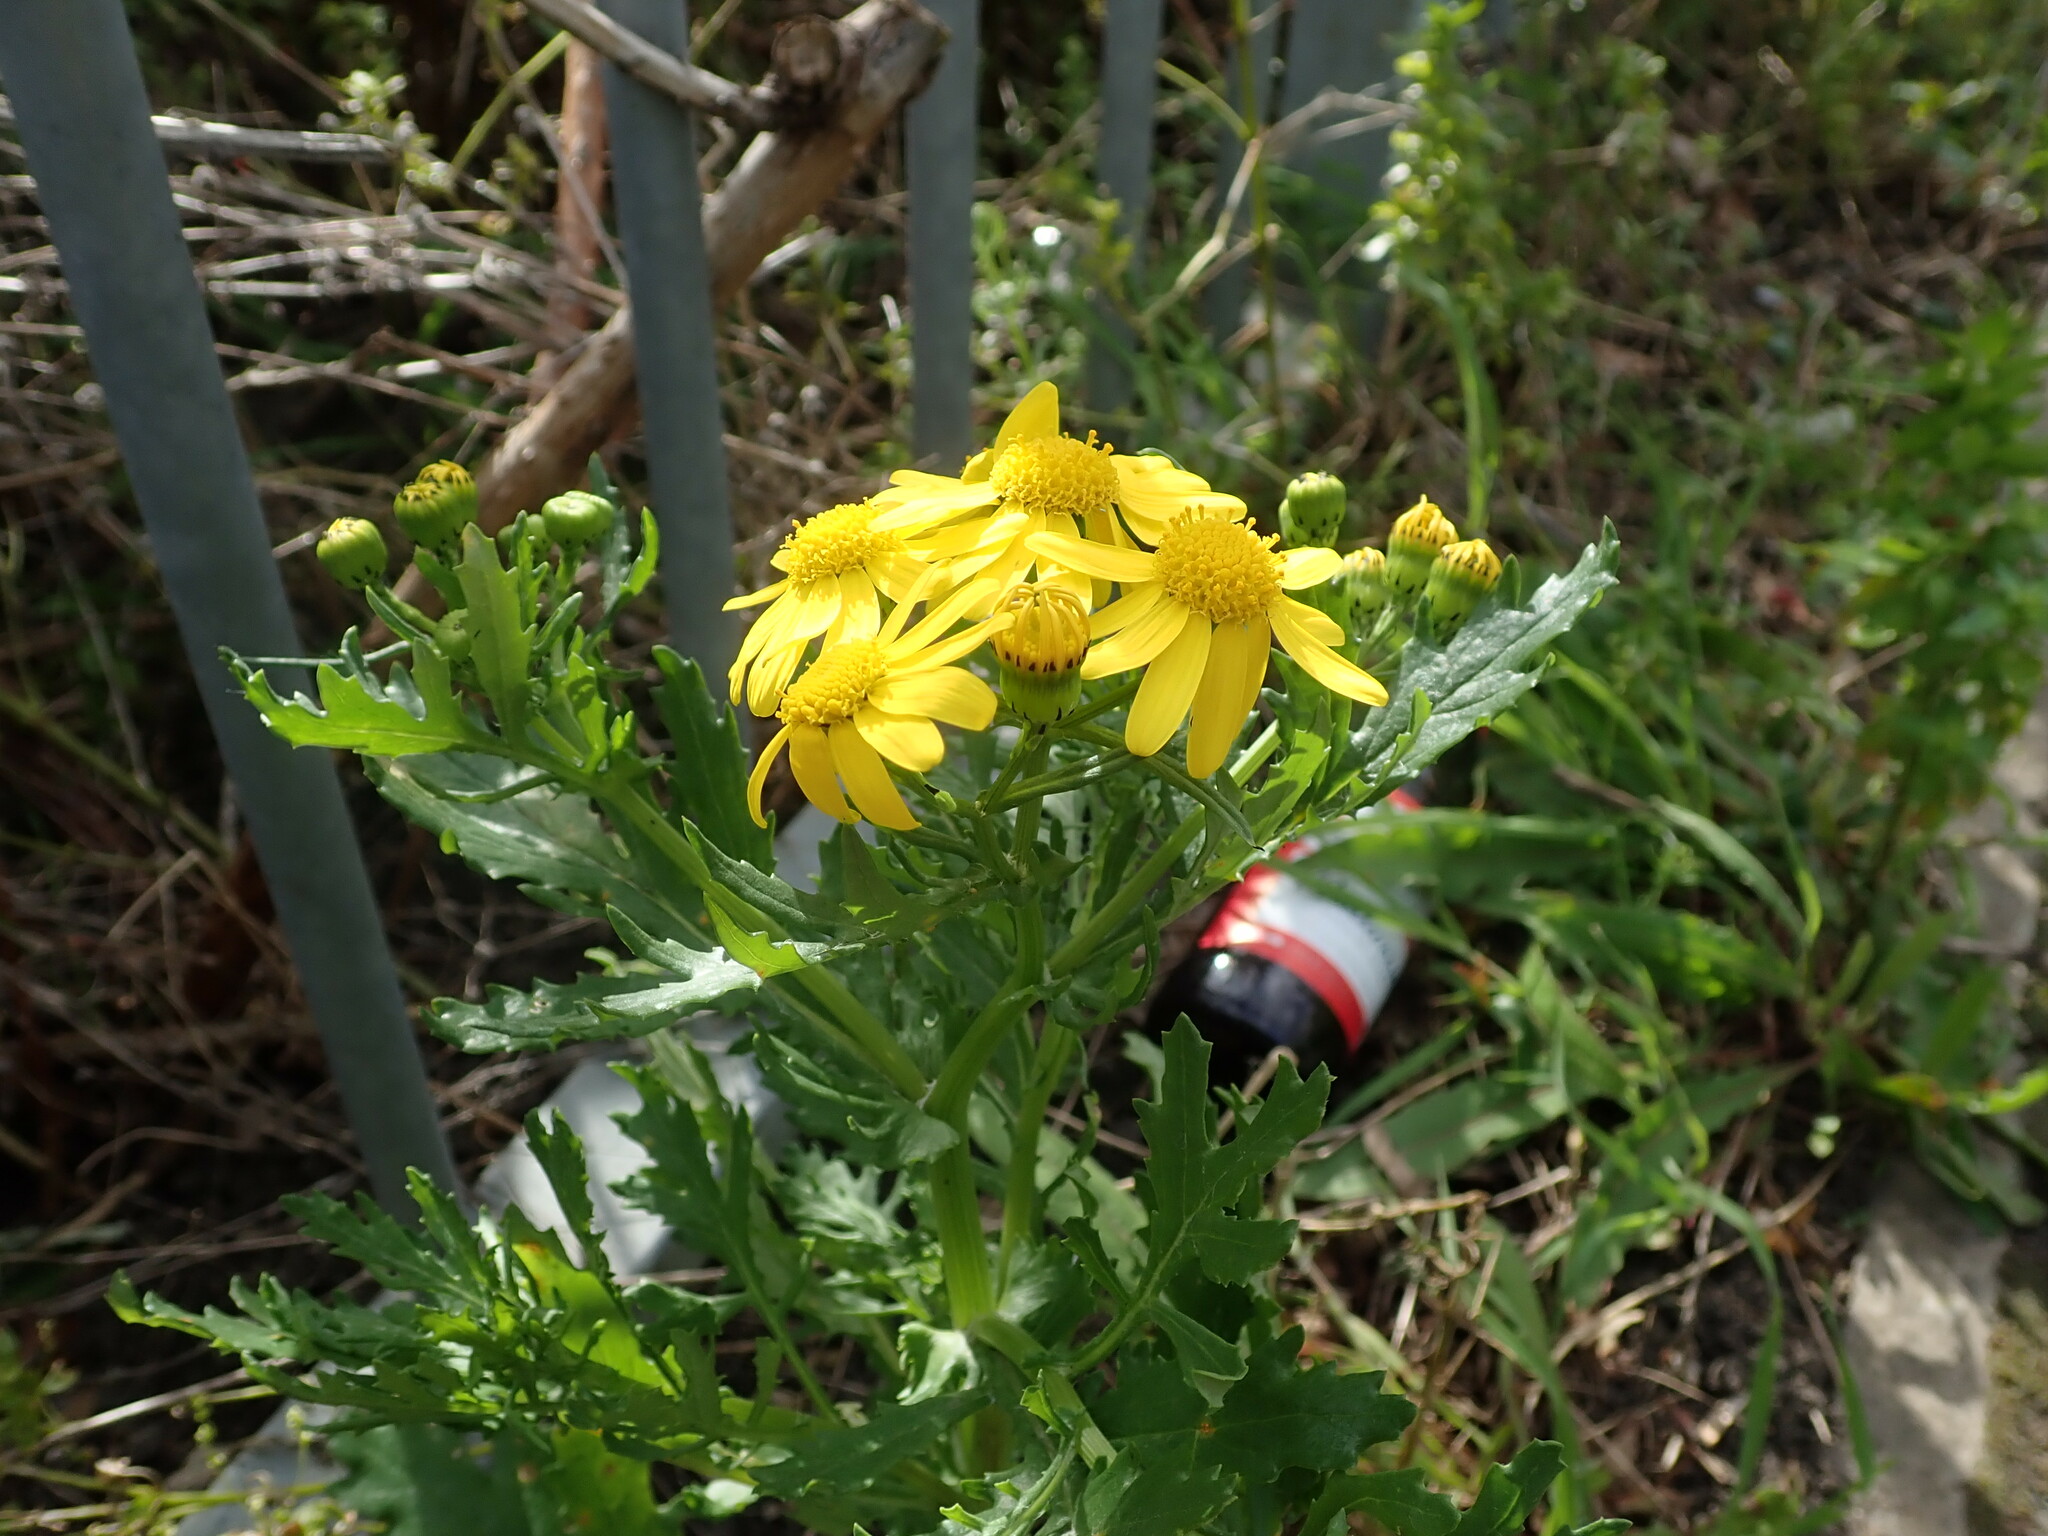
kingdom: Plantae
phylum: Tracheophyta
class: Magnoliopsida
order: Asterales
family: Asteraceae
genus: Senecio
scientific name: Senecio squalidus
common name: Oxford ragwort
